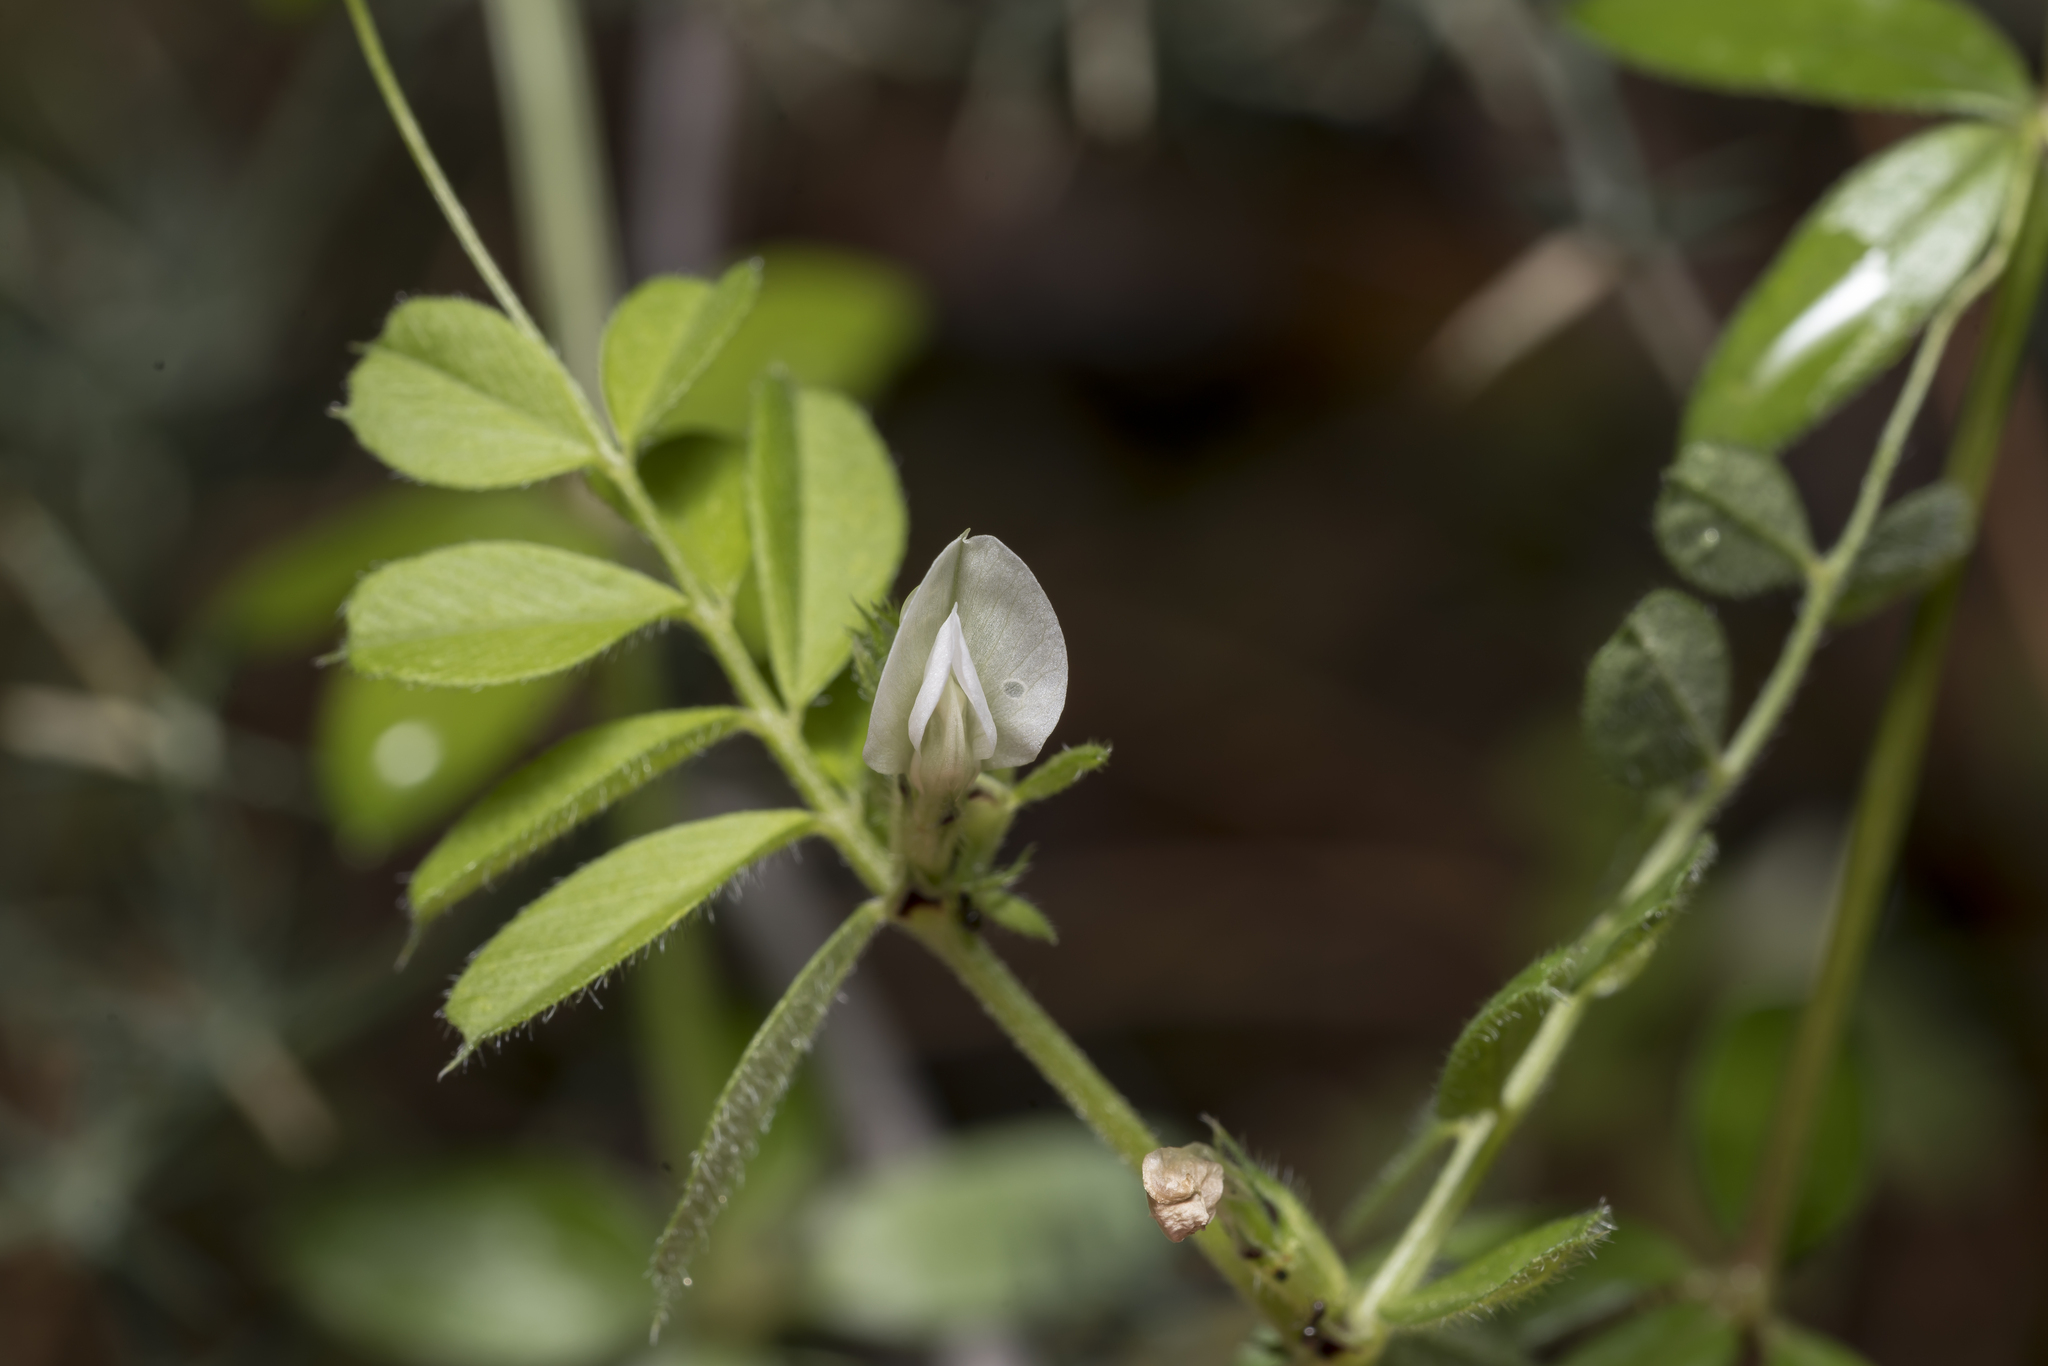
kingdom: Plantae
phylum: Tracheophyta
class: Magnoliopsida
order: Fabales
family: Fabaceae
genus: Vicia
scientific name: Vicia cuspidata
